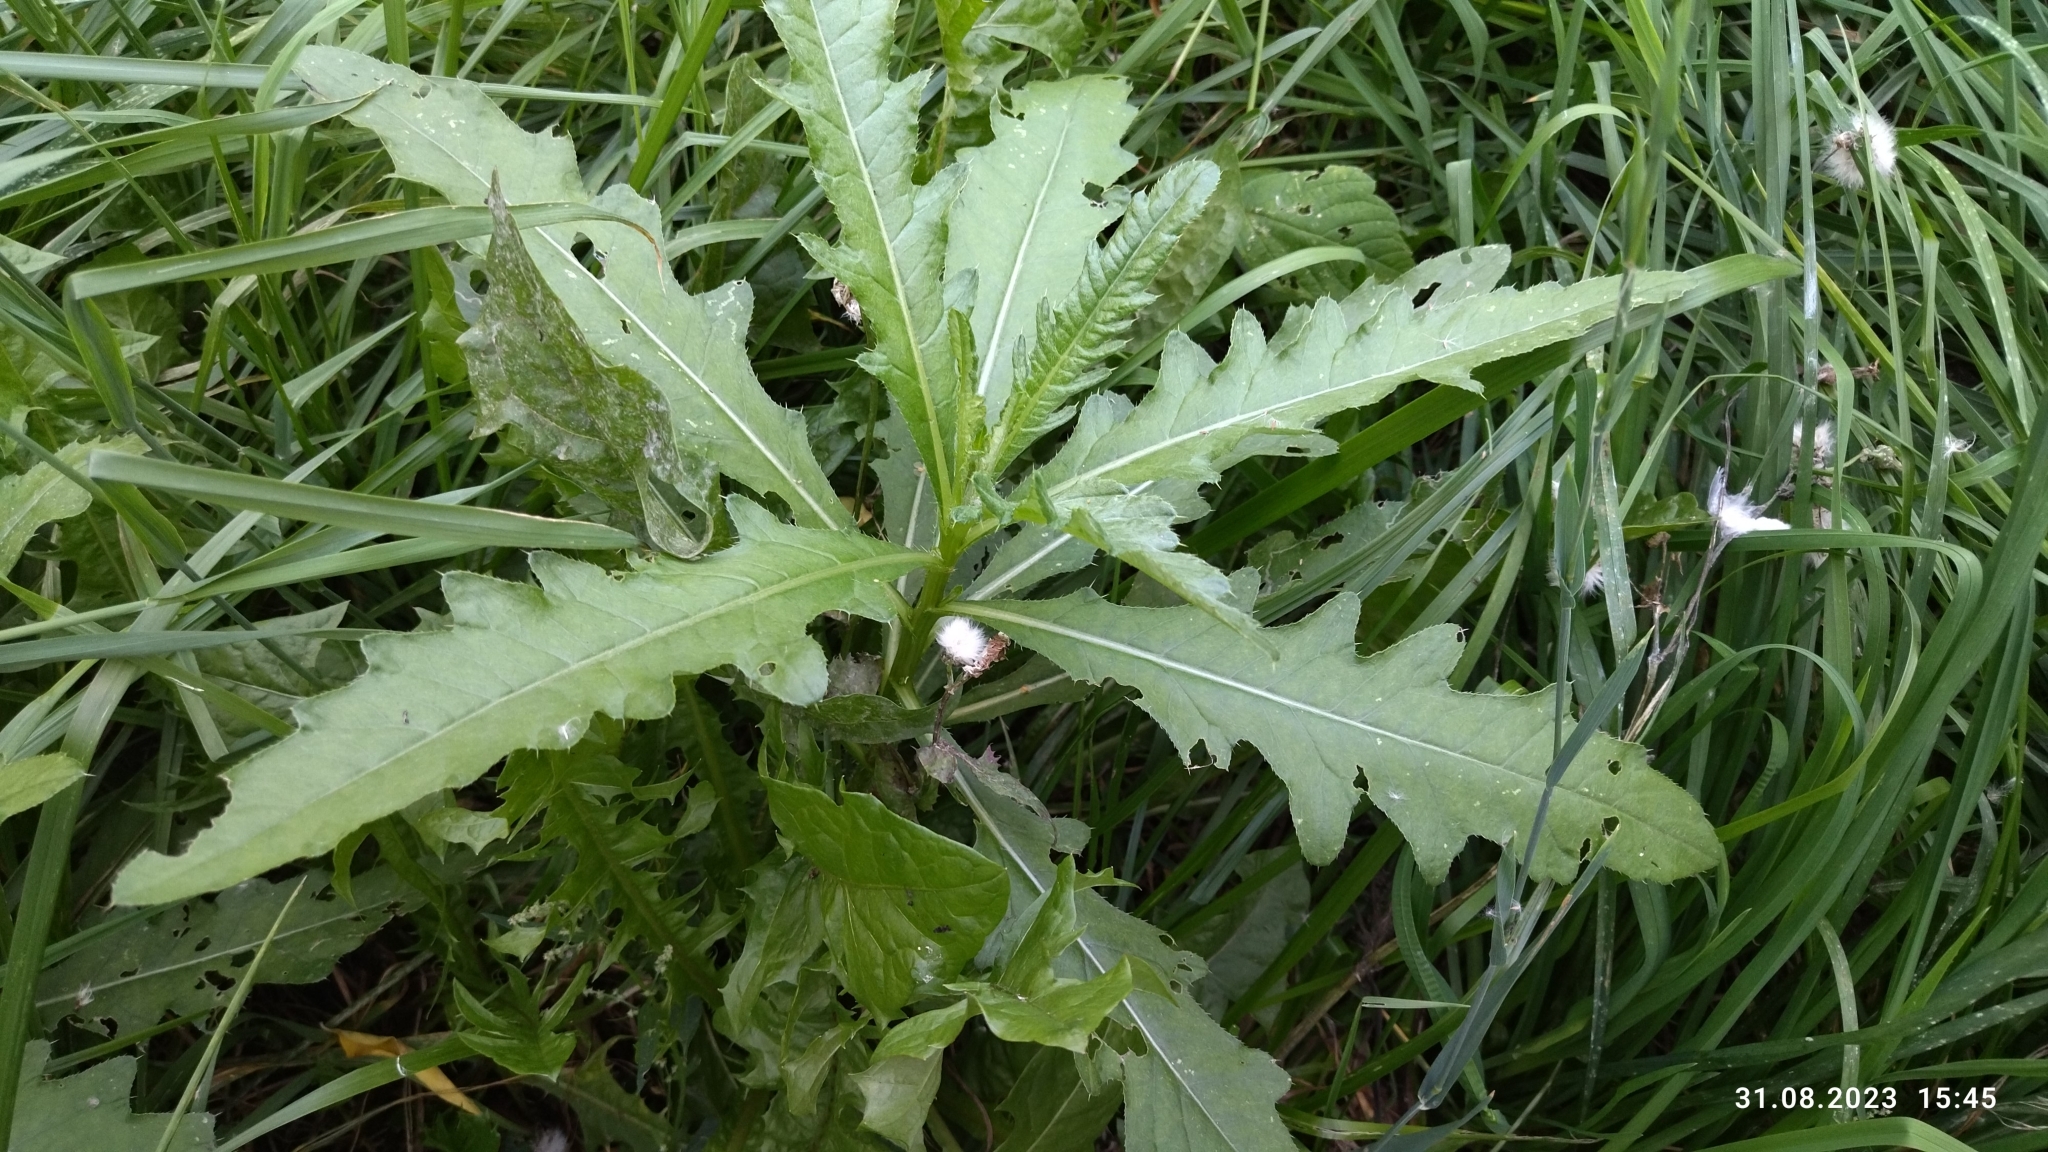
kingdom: Plantae
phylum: Tracheophyta
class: Magnoliopsida
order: Asterales
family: Asteraceae
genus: Cirsium
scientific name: Cirsium arvense
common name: Creeping thistle
